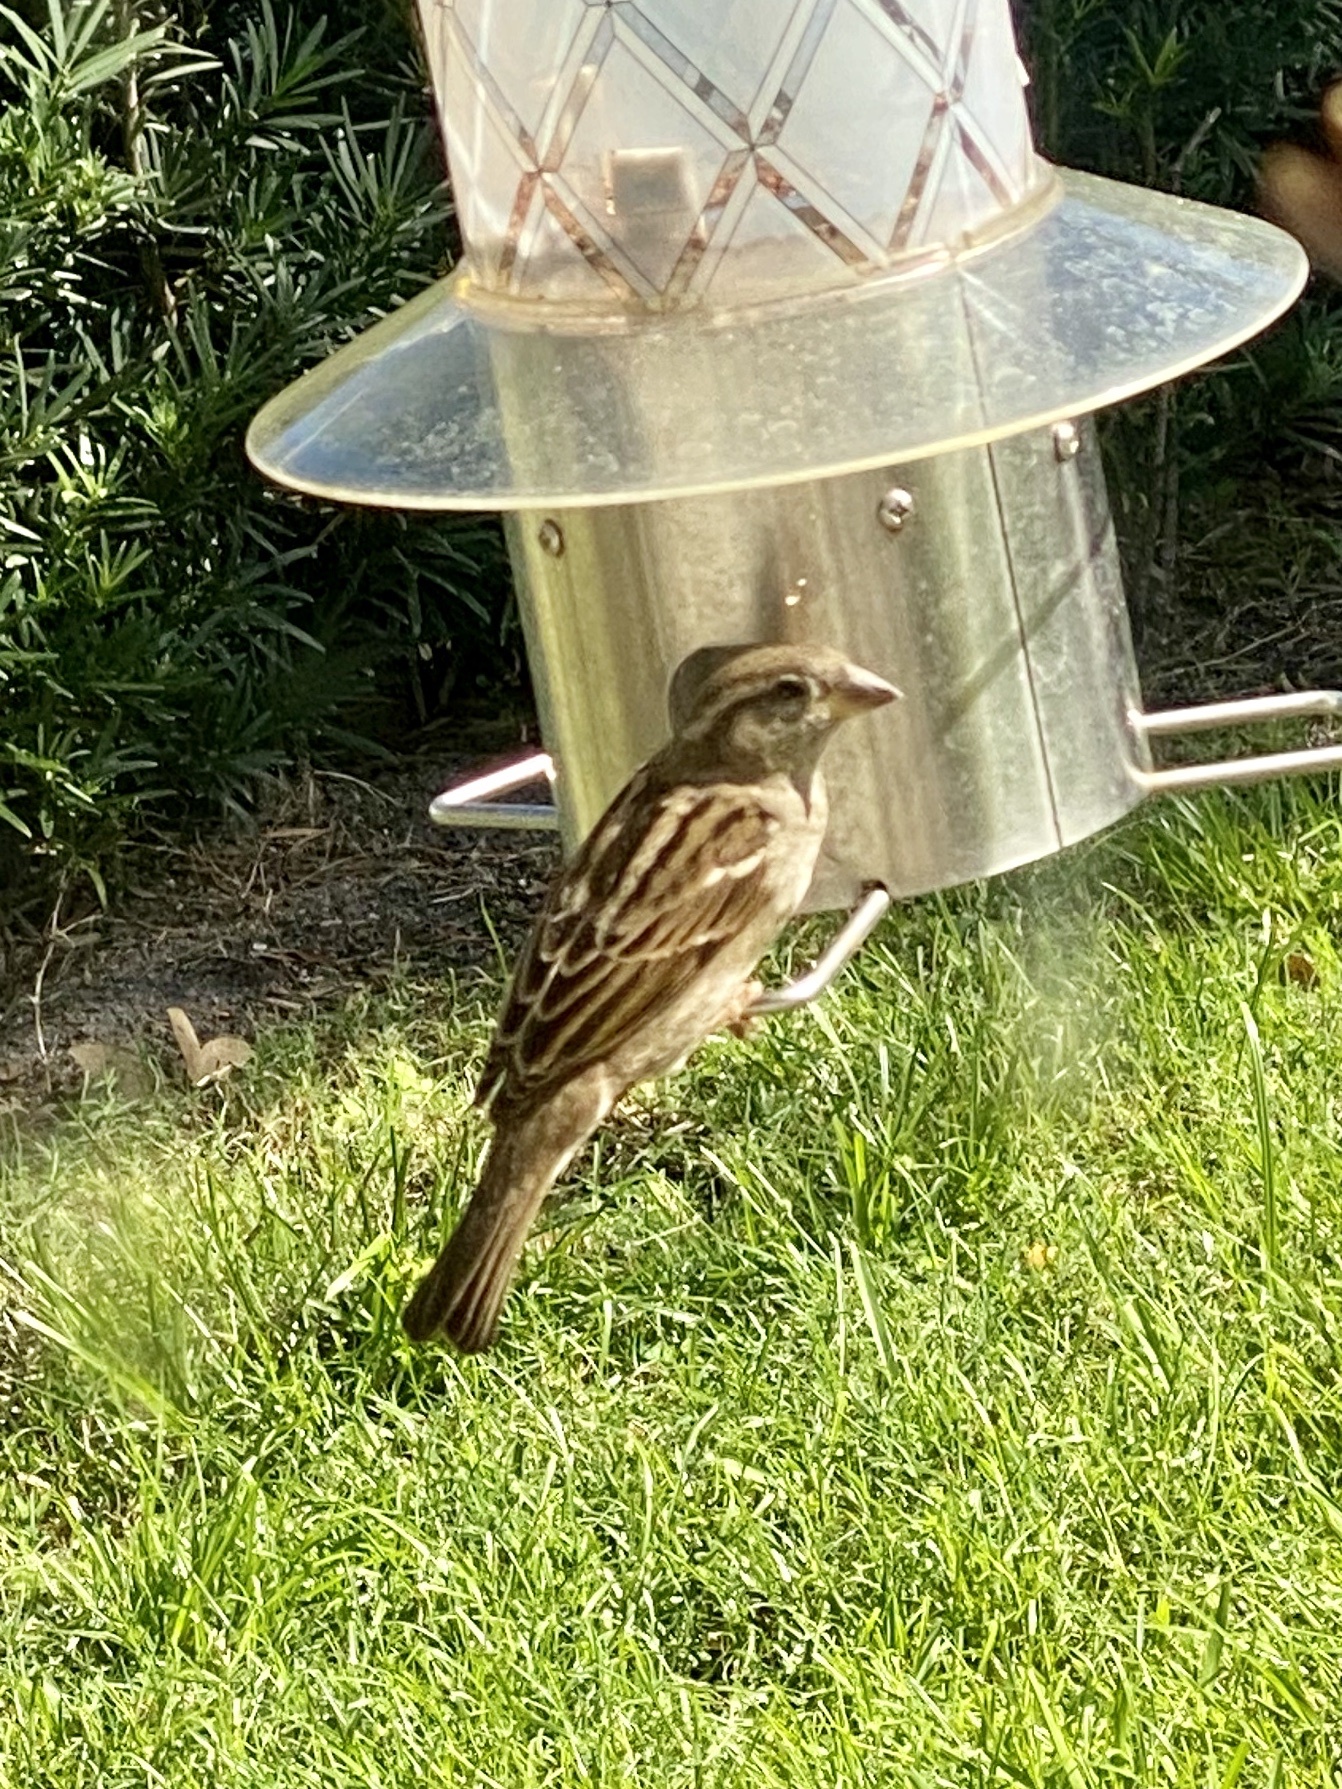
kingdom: Animalia
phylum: Chordata
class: Aves
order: Passeriformes
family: Passeridae
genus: Passer
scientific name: Passer domesticus
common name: House sparrow
